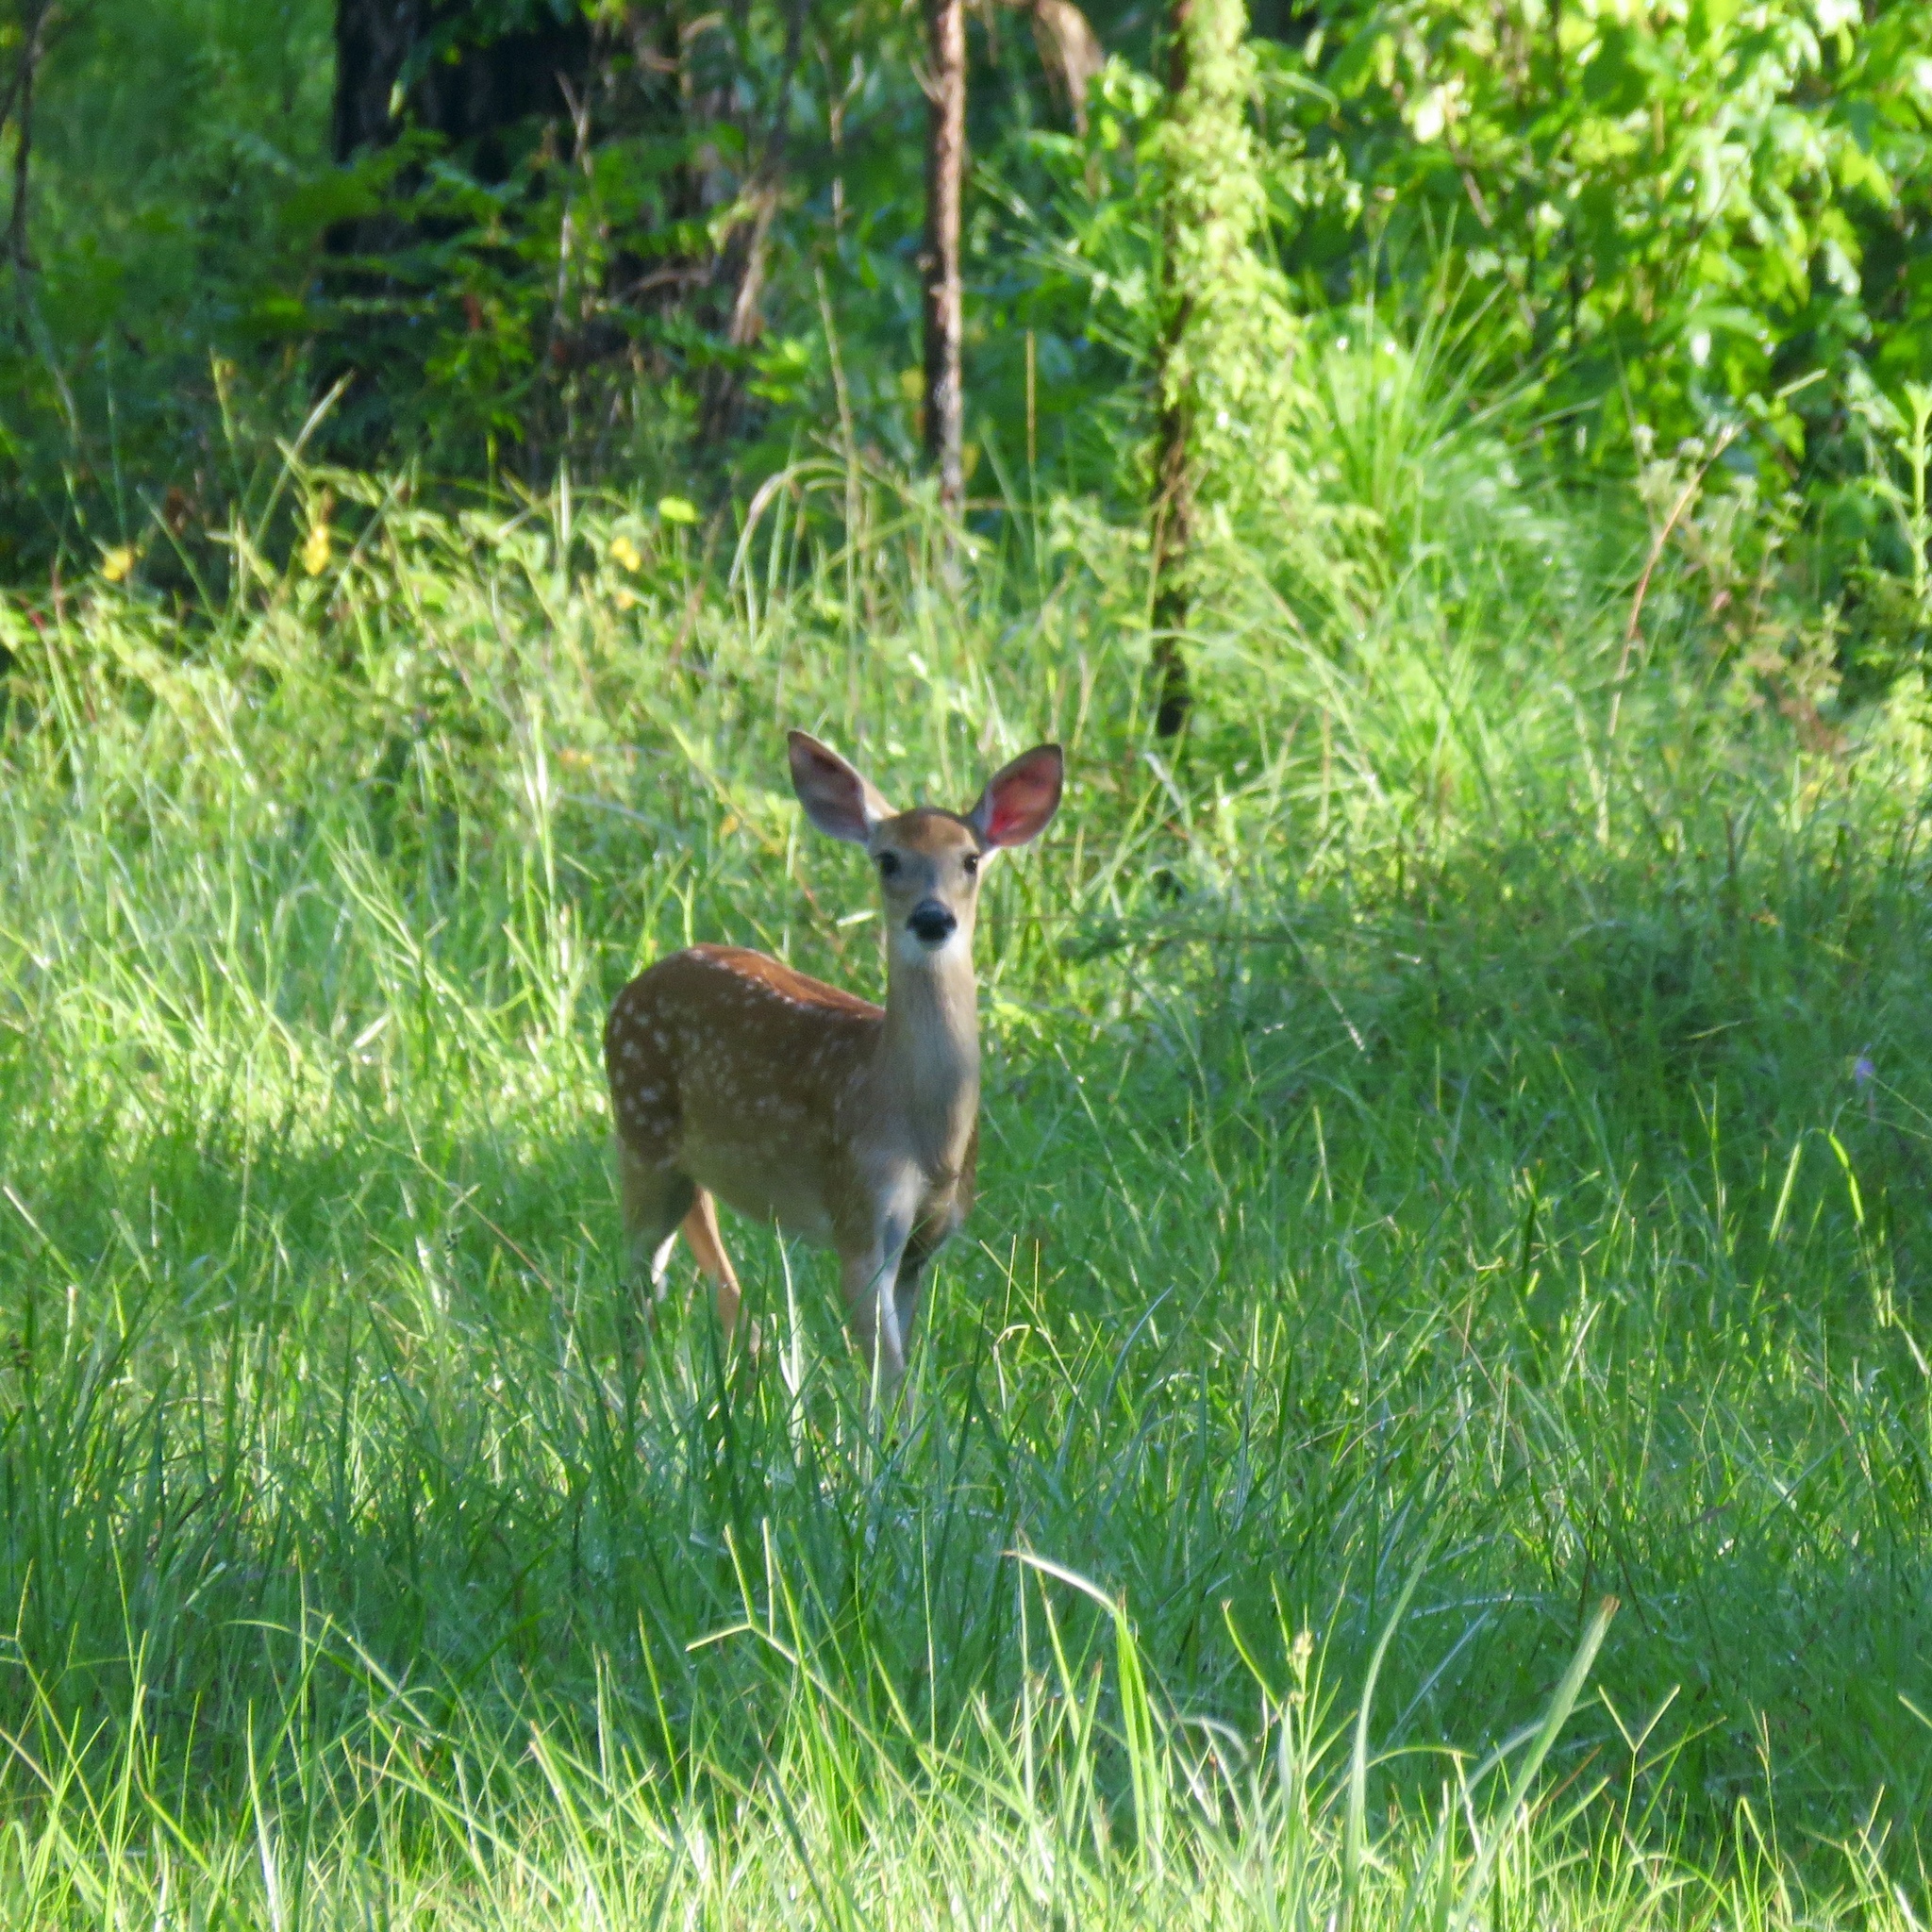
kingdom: Animalia
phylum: Chordata
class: Mammalia
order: Artiodactyla
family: Cervidae
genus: Odocoileus
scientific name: Odocoileus virginianus
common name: White-tailed deer
